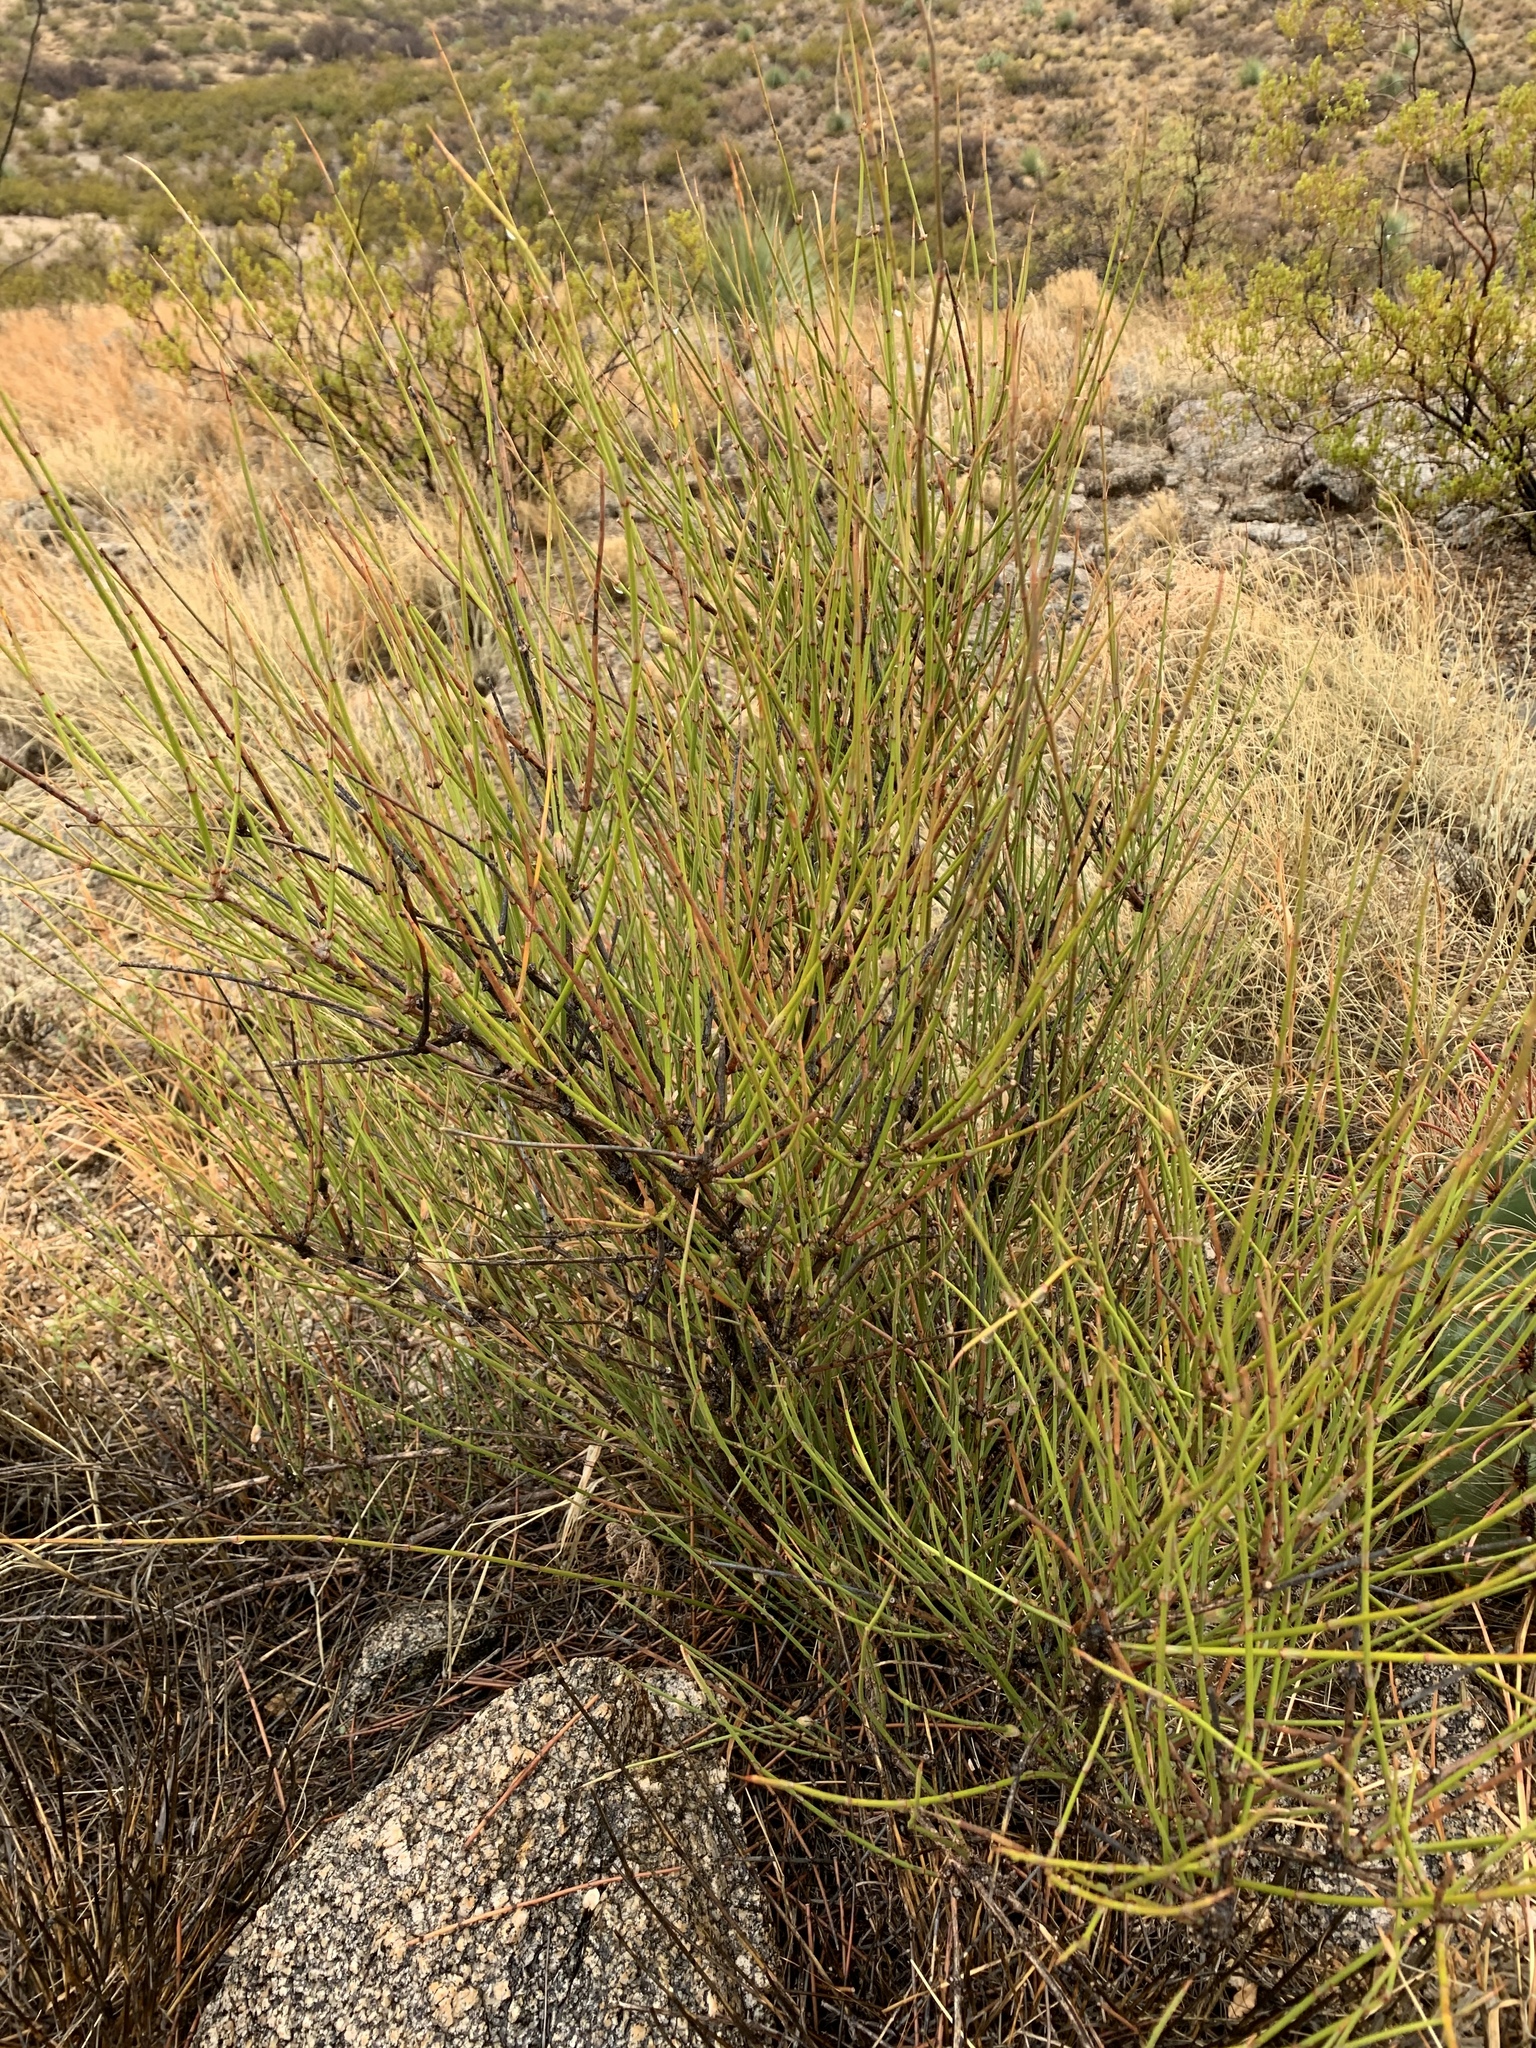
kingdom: Plantae
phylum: Tracheophyta
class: Gnetopsida
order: Ephedrales
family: Ephedraceae
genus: Ephedra
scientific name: Ephedra trifurca
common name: Mexican-tea
